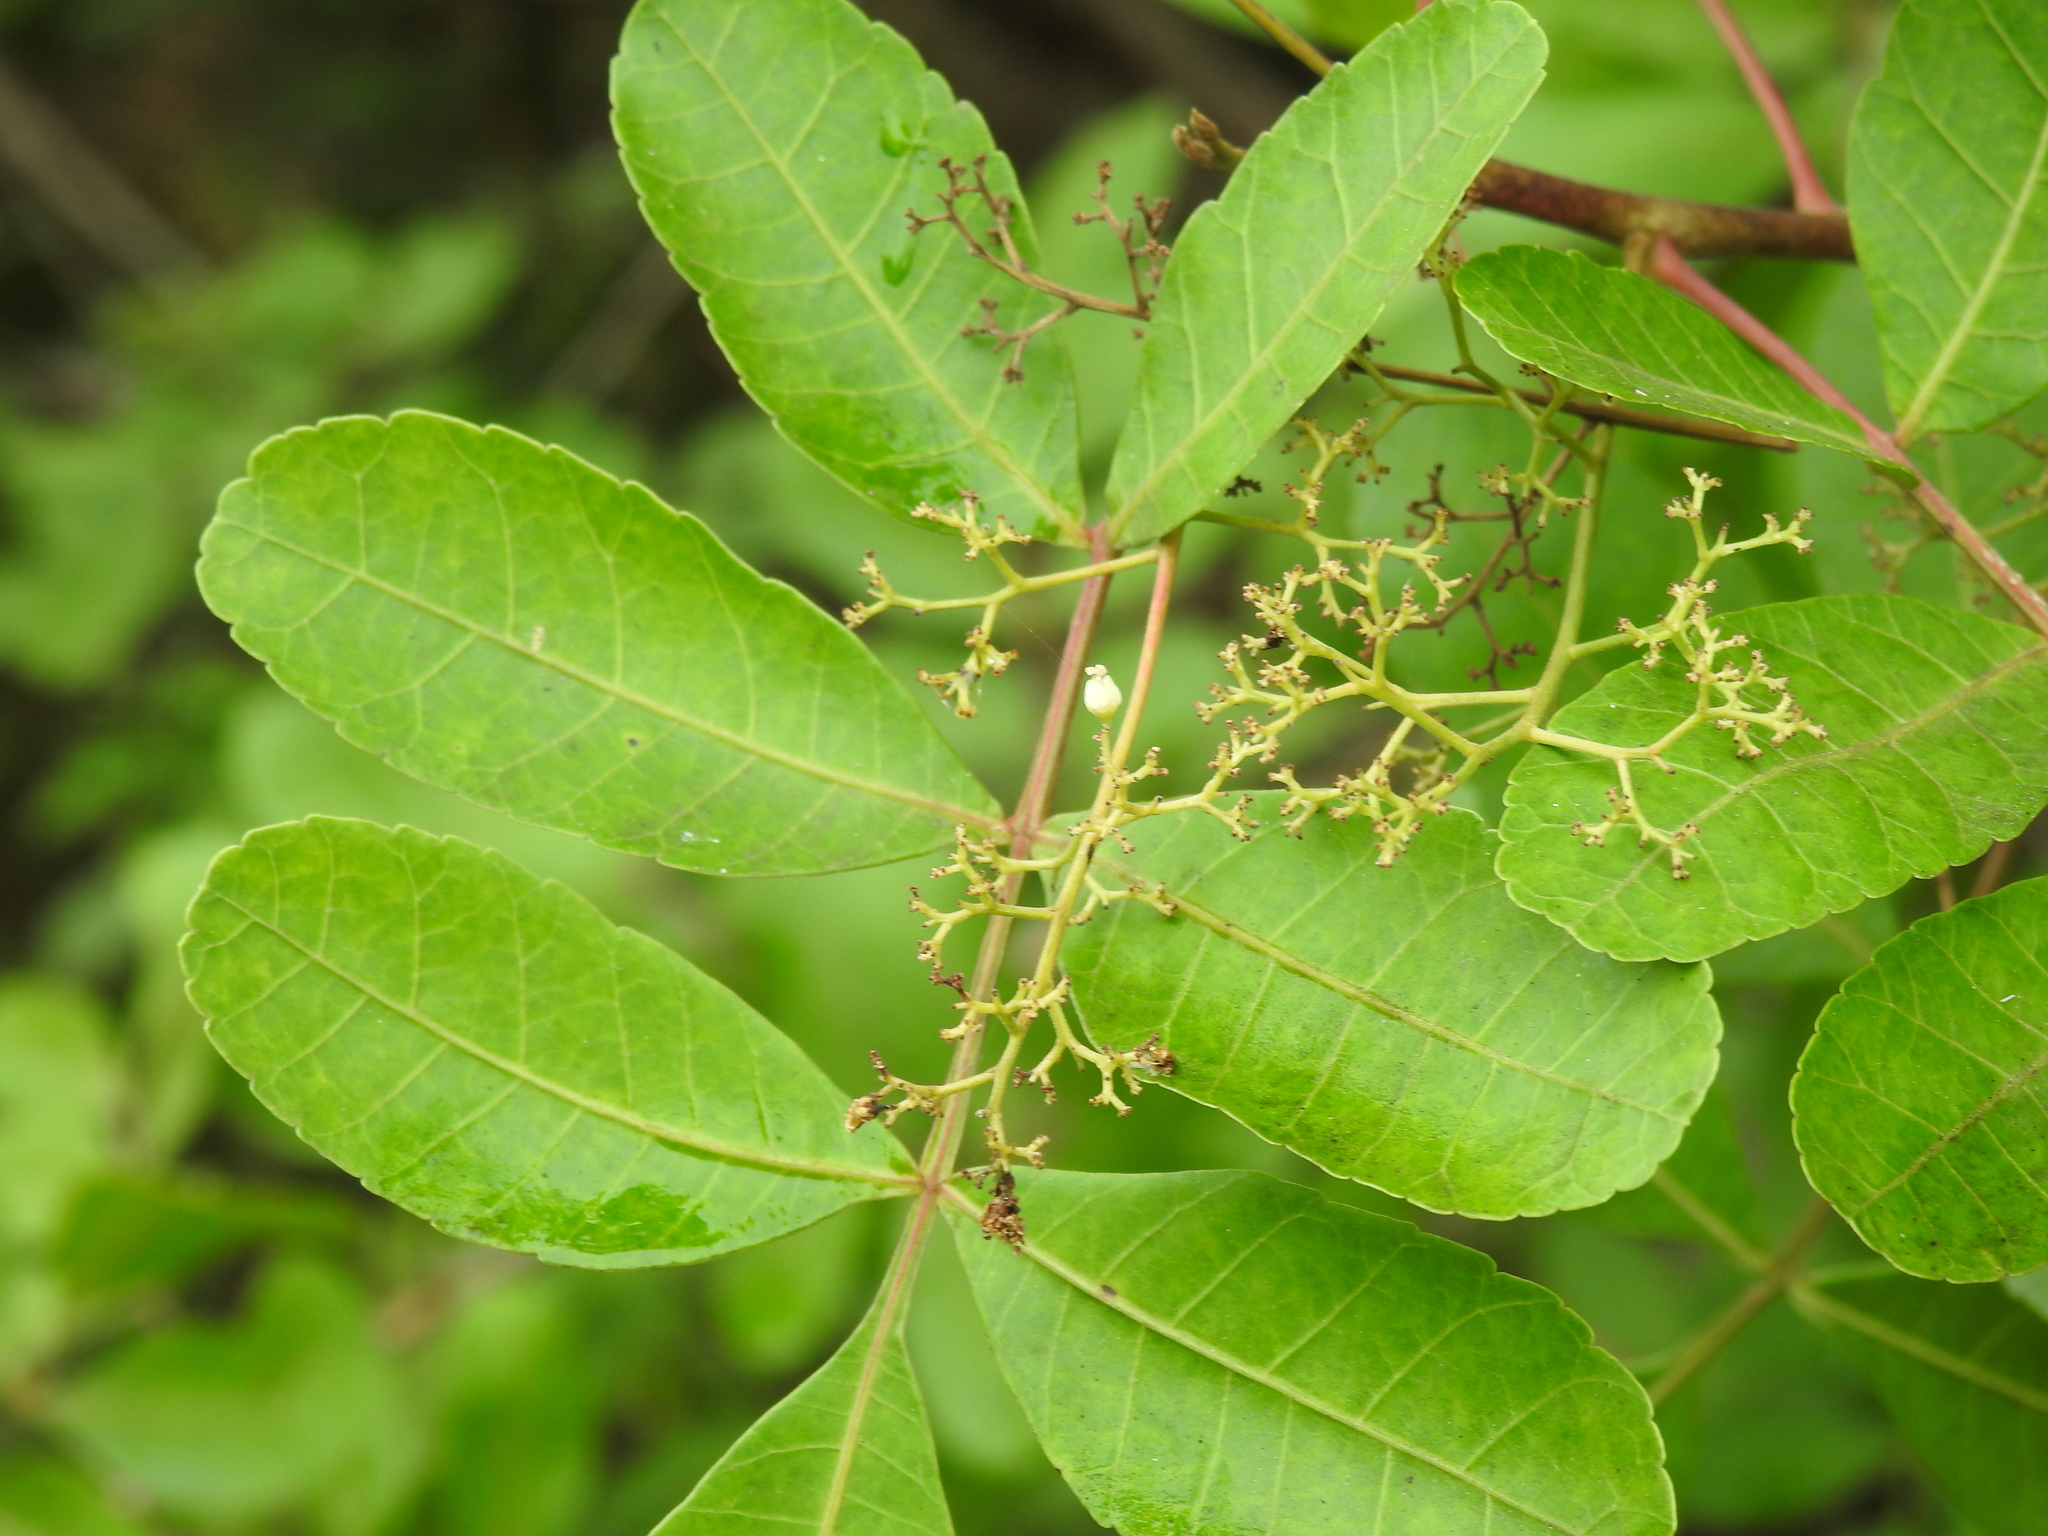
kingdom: Plantae
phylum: Tracheophyta
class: Magnoliopsida
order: Sapindales
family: Anacardiaceae
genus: Schinus
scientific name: Schinus terebinthifolia
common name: Brazilian peppertree
